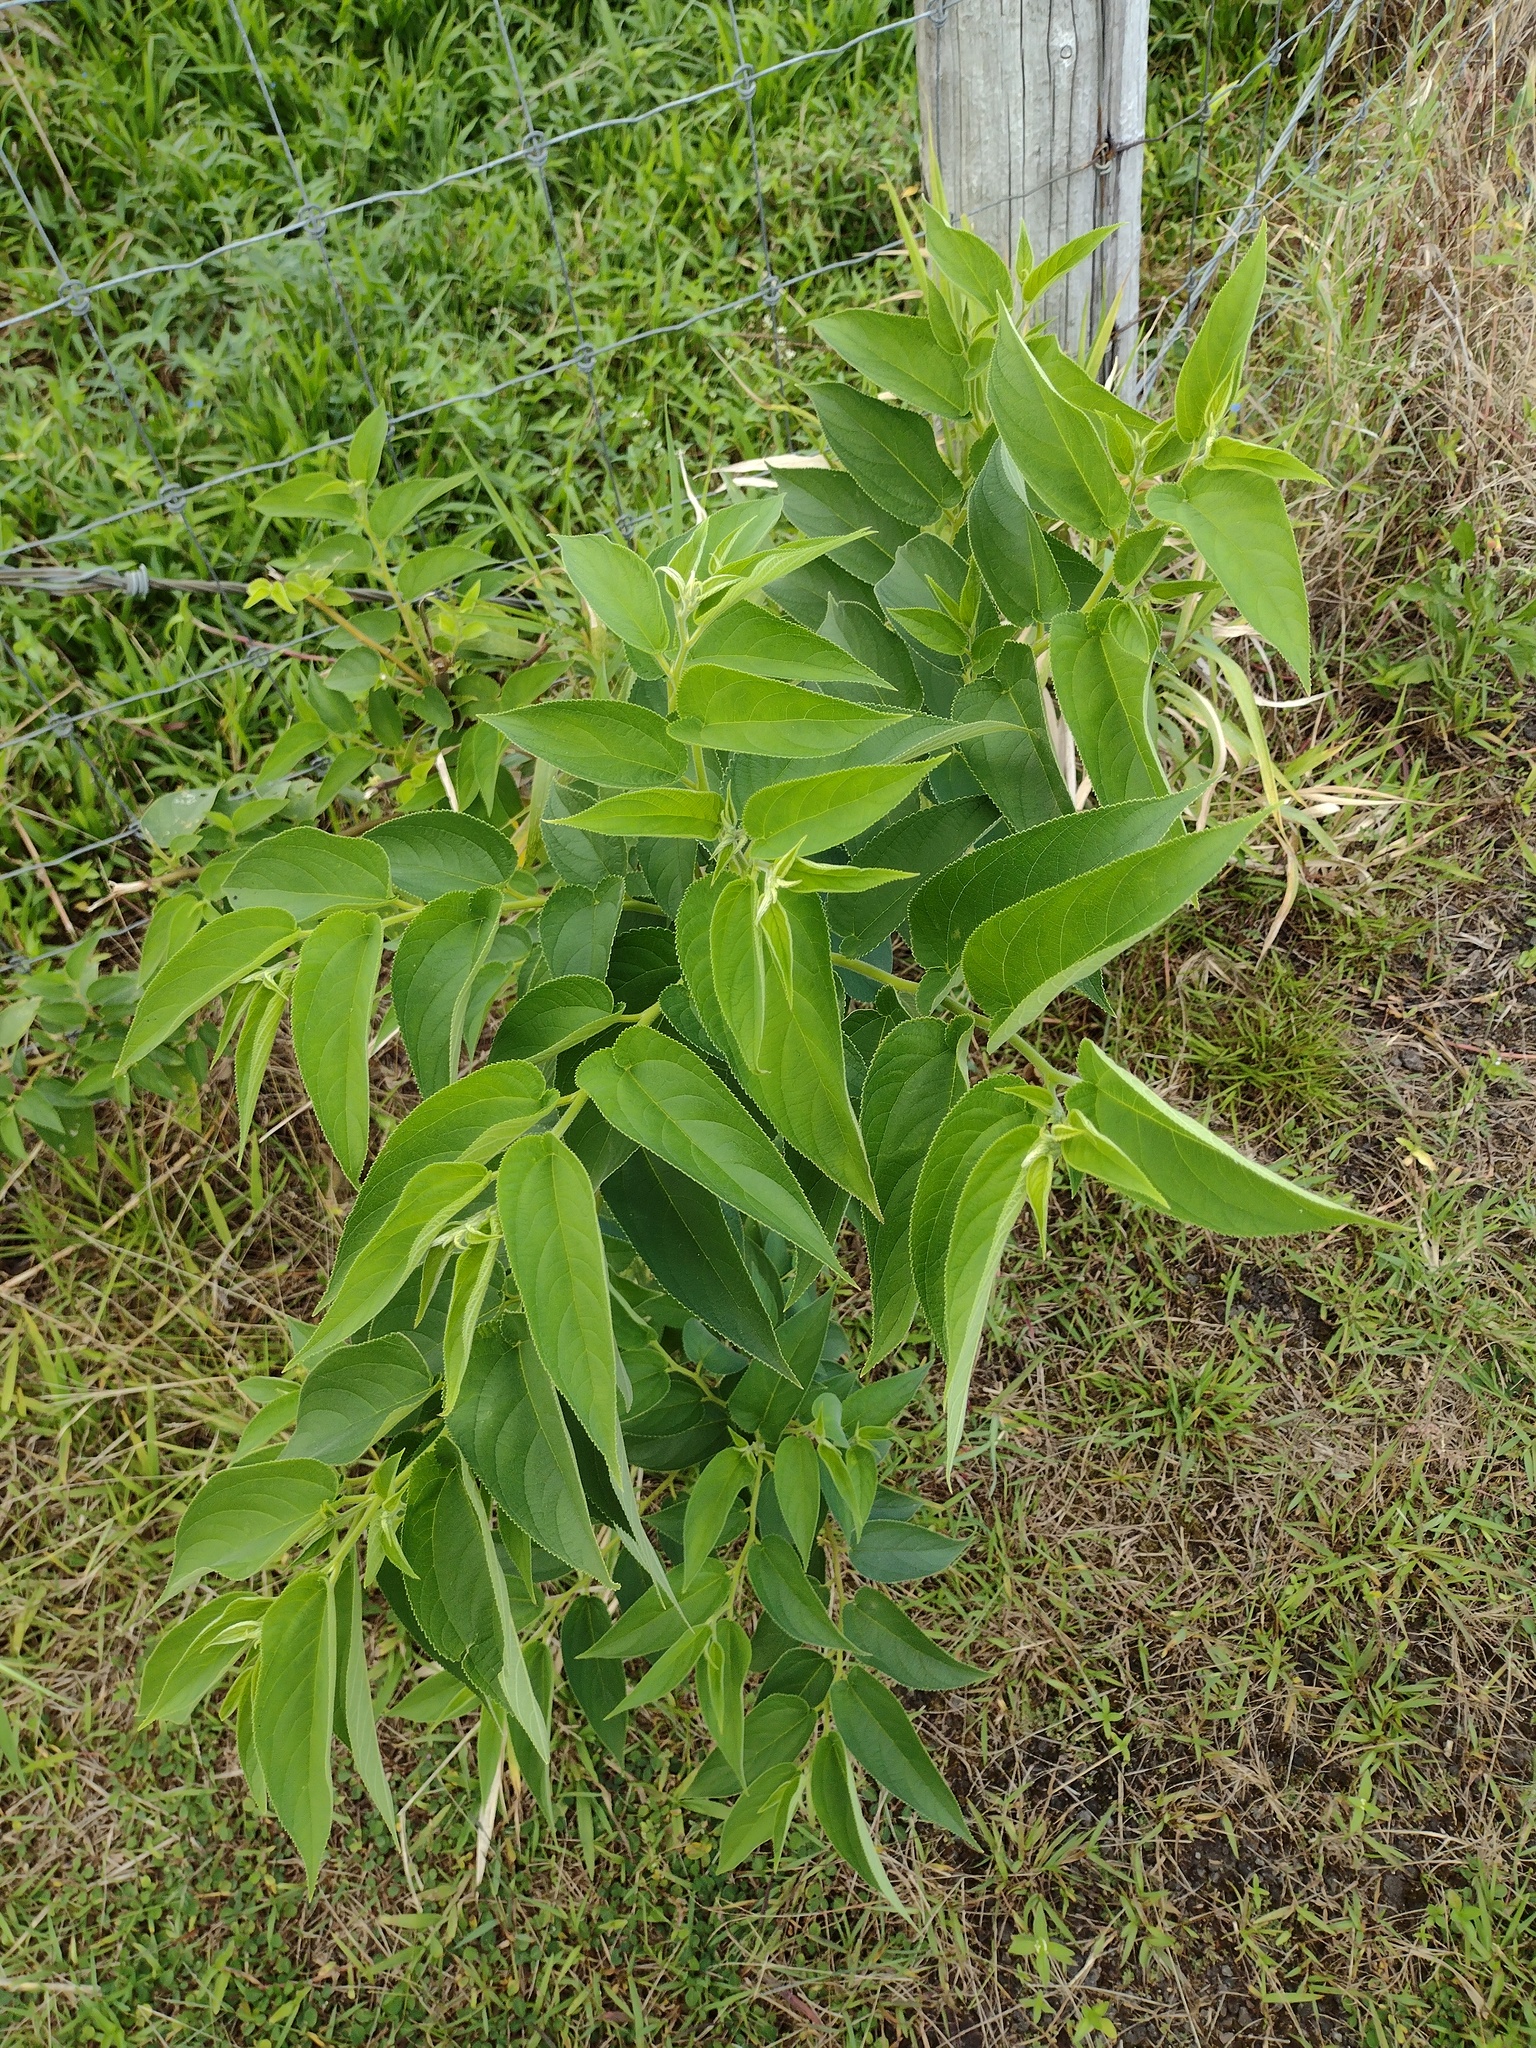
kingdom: Plantae
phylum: Tracheophyta
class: Magnoliopsida
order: Rosales
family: Cannabaceae
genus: Trema
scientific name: Trema orientale
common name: Indian charcoal tree
